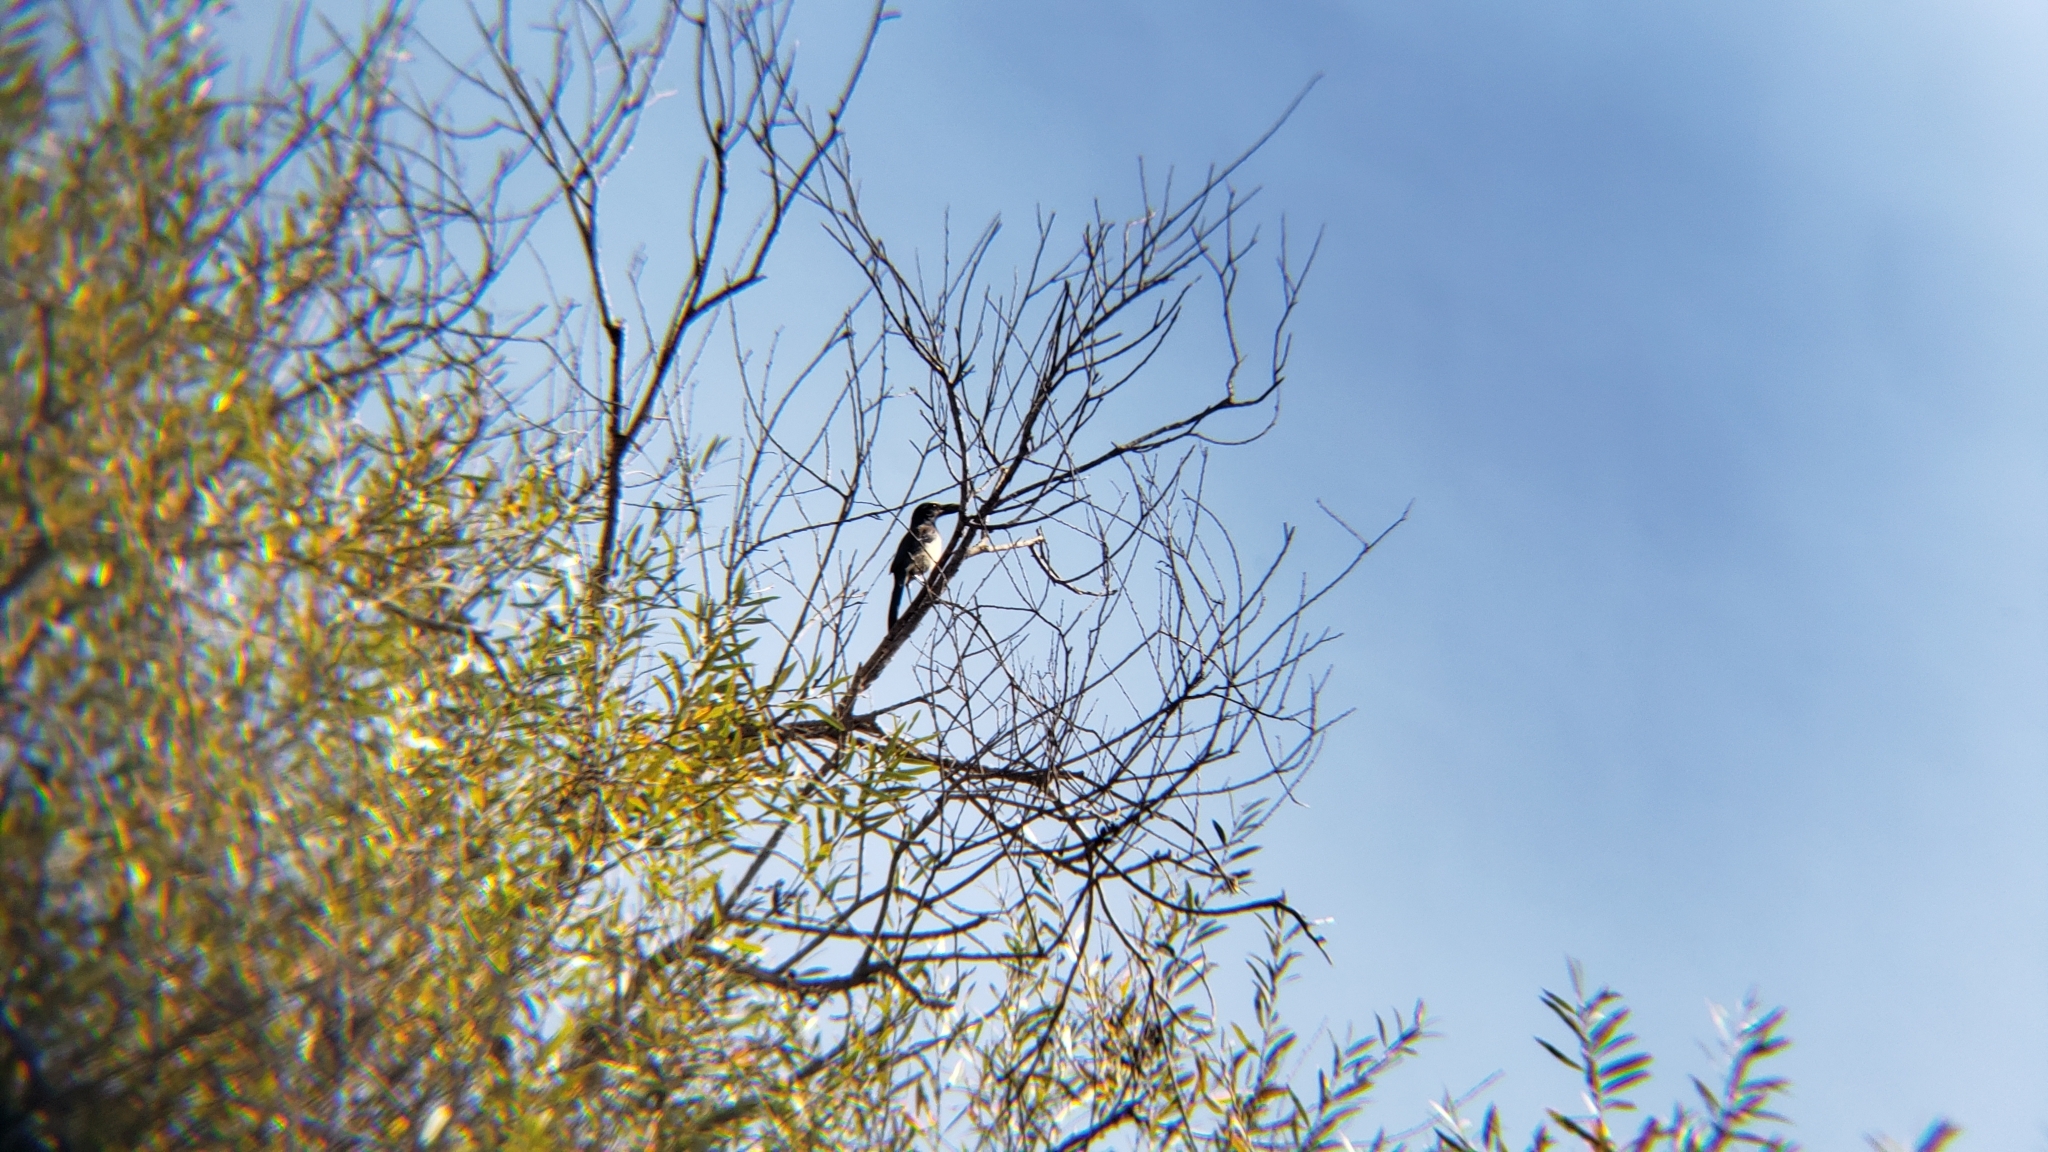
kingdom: Animalia
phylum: Chordata
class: Aves
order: Passeriformes
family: Corvidae
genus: Aphelocoma
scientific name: Aphelocoma californica
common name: California scrub-jay
